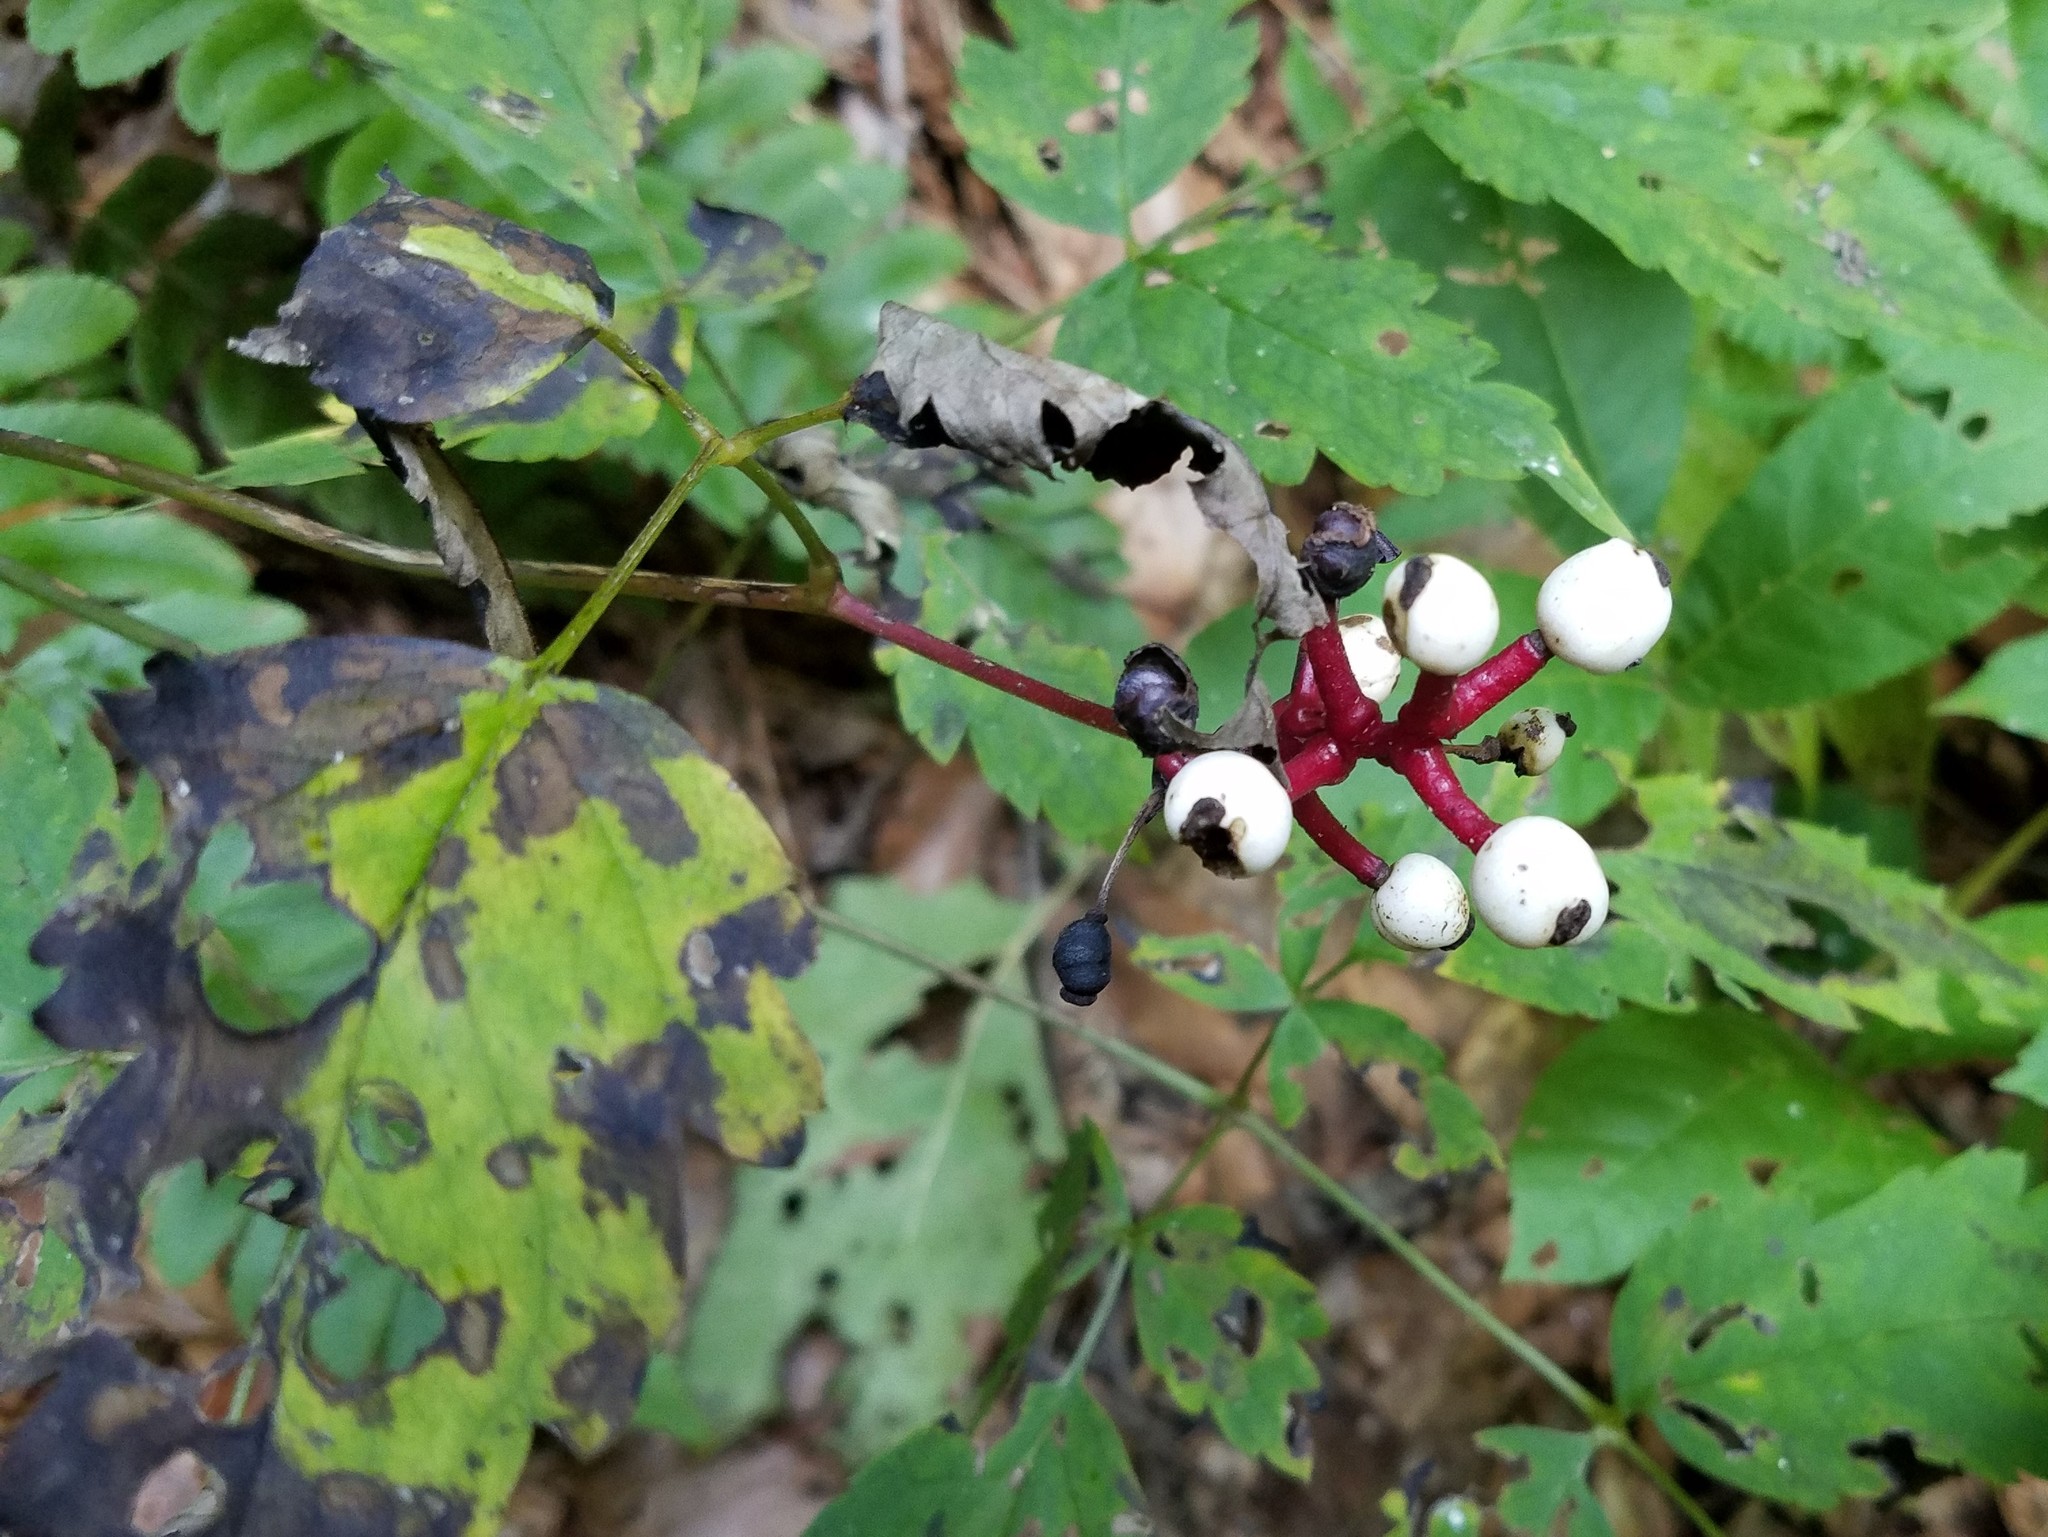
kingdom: Plantae
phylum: Tracheophyta
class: Magnoliopsida
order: Ranunculales
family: Ranunculaceae
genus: Actaea
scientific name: Actaea pachypoda
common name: Doll's-eyes
